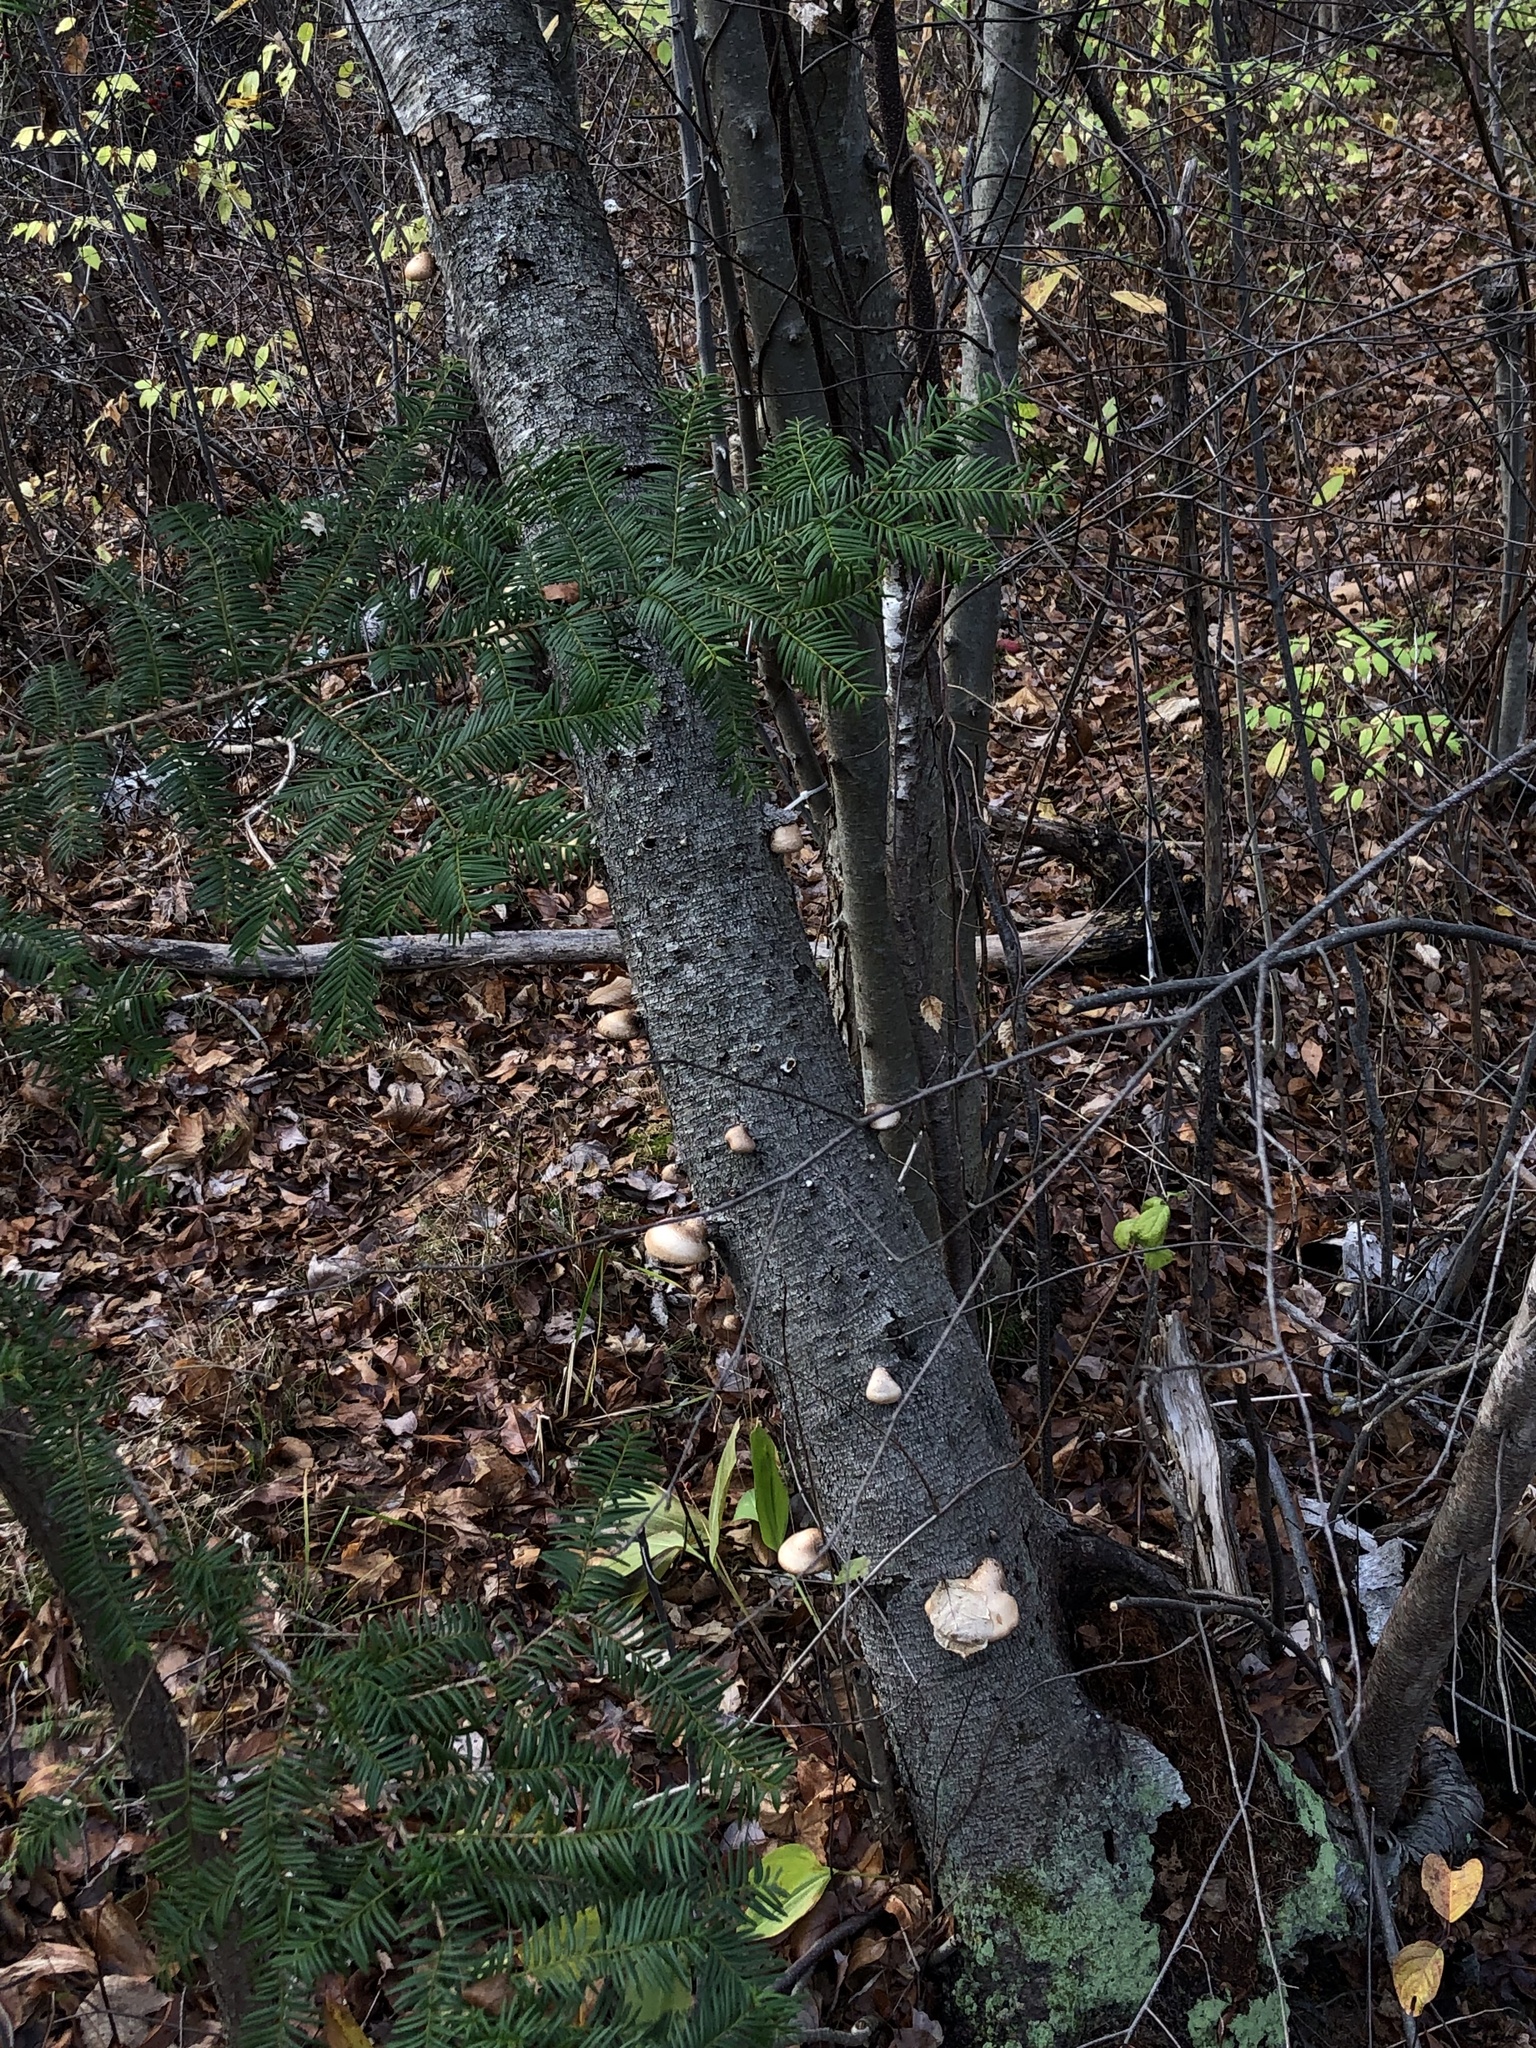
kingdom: Fungi
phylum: Basidiomycota
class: Agaricomycetes
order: Polyporales
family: Fomitopsidaceae
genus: Fomitopsis
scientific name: Fomitopsis betulina
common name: Birch polypore
